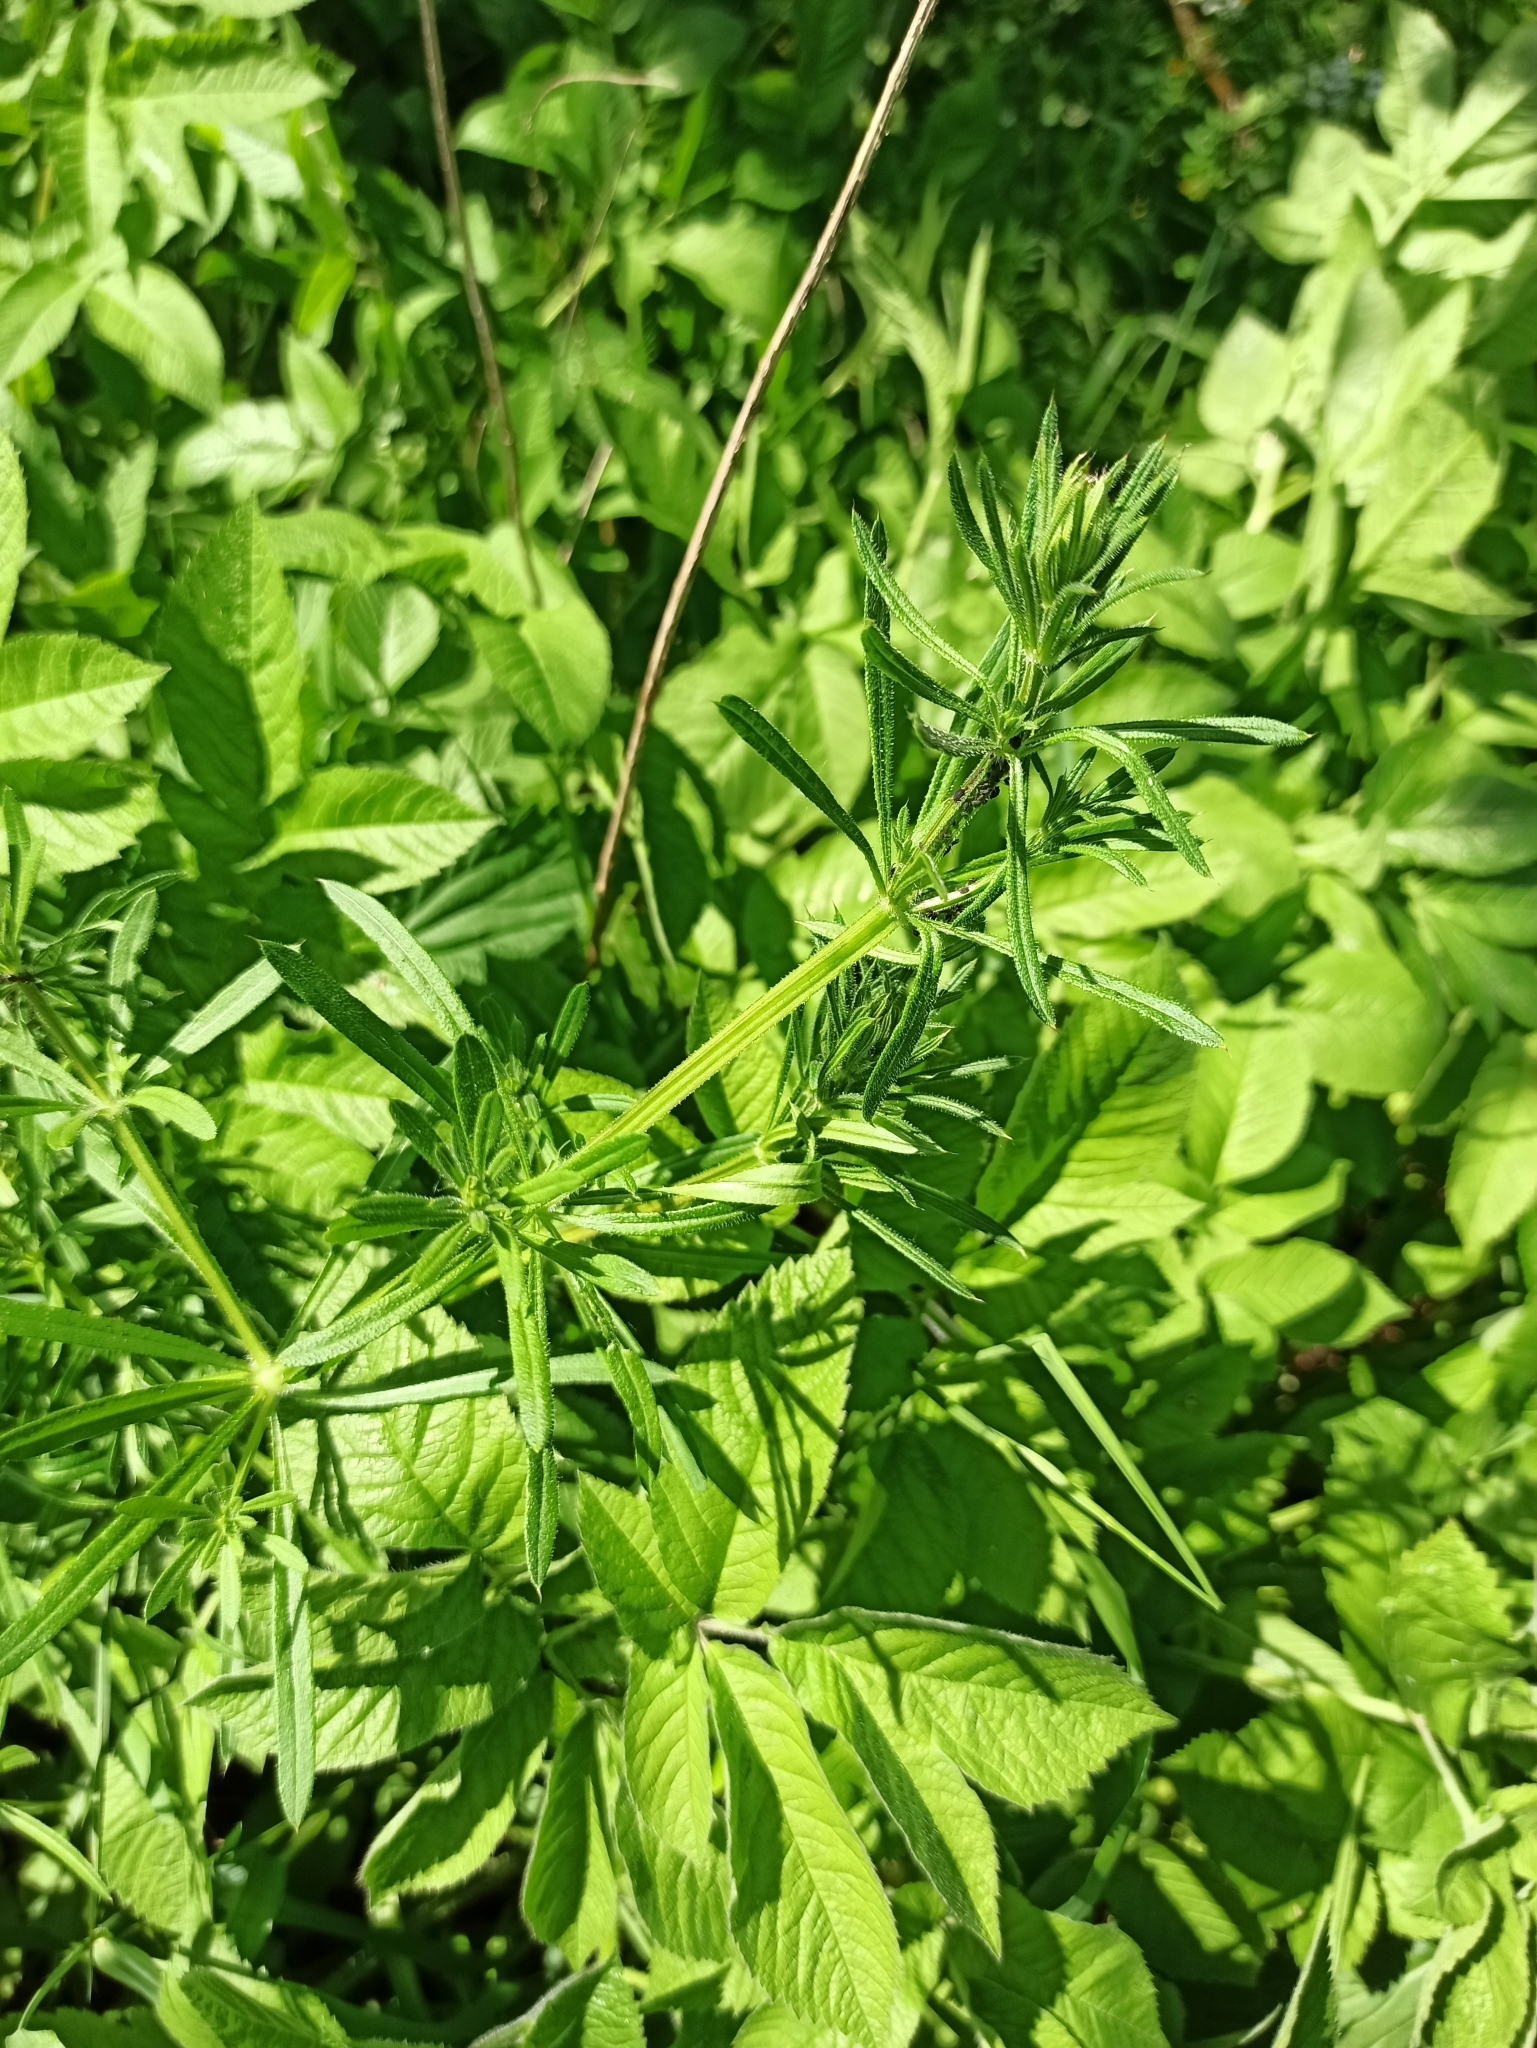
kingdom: Plantae
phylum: Tracheophyta
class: Magnoliopsida
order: Gentianales
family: Rubiaceae
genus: Galium
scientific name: Galium aparine
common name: Cleavers
